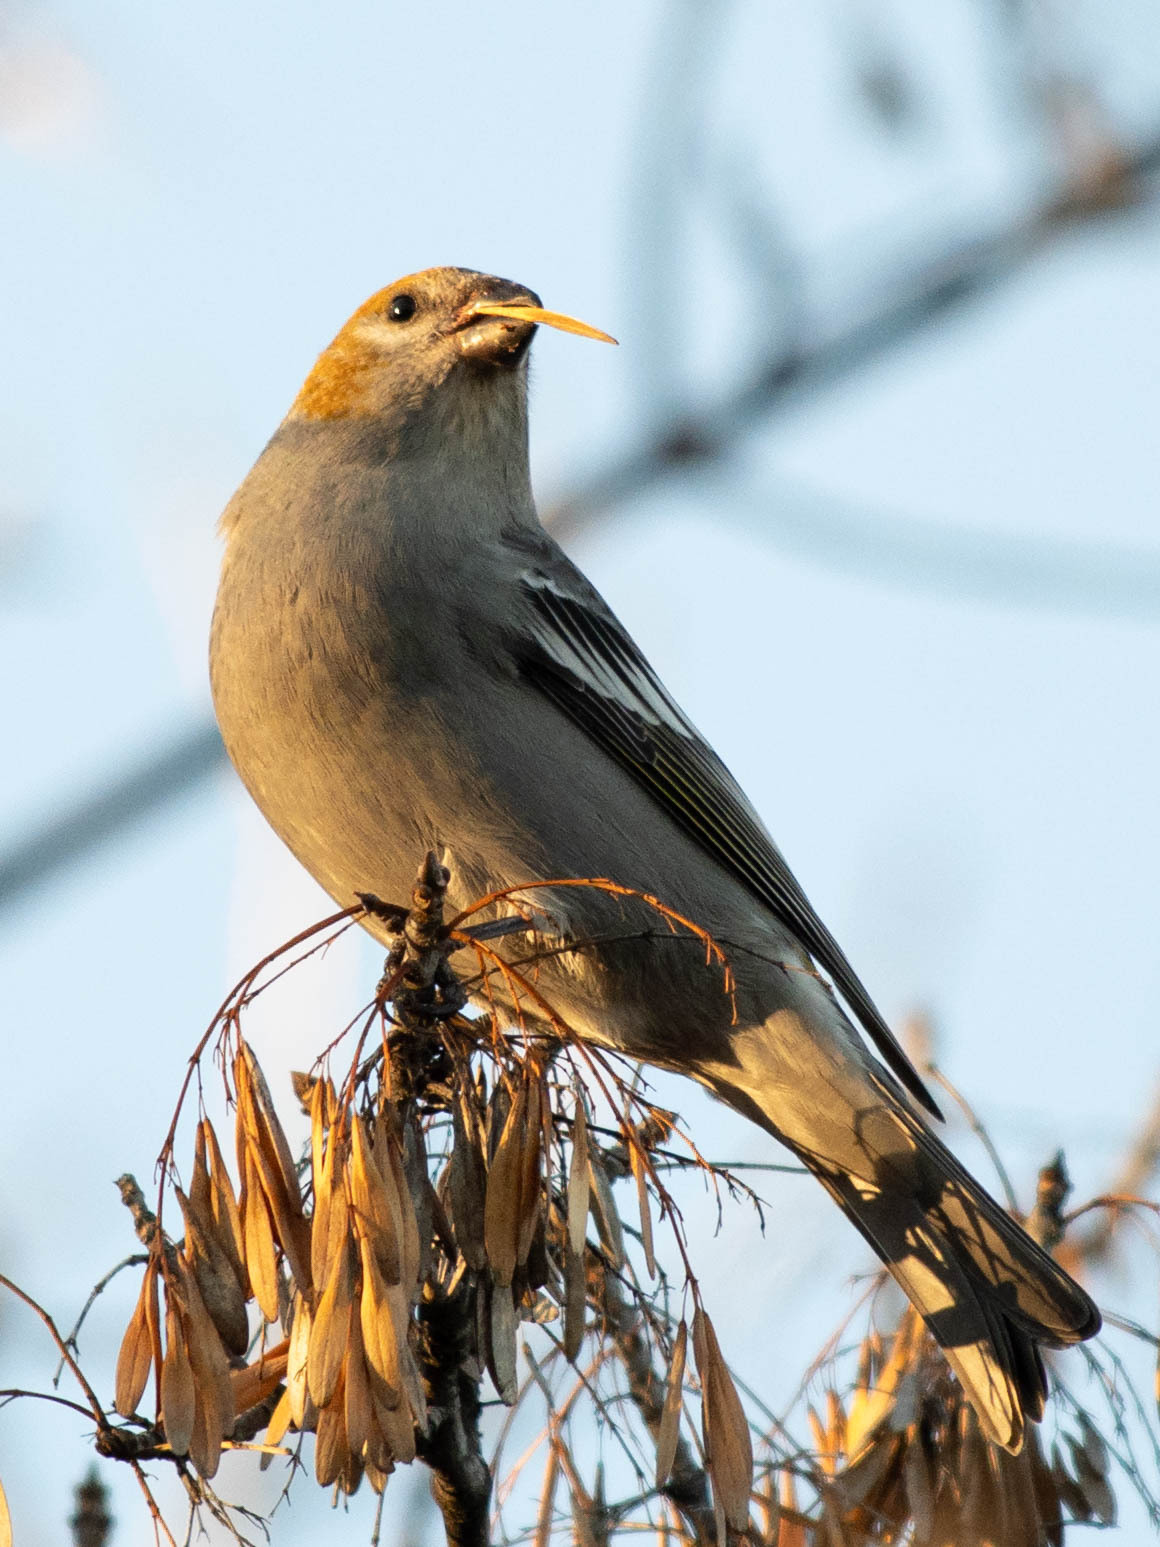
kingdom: Animalia
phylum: Chordata
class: Aves
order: Passeriformes
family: Fringillidae
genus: Pinicola
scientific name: Pinicola enucleator
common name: Pine grosbeak
